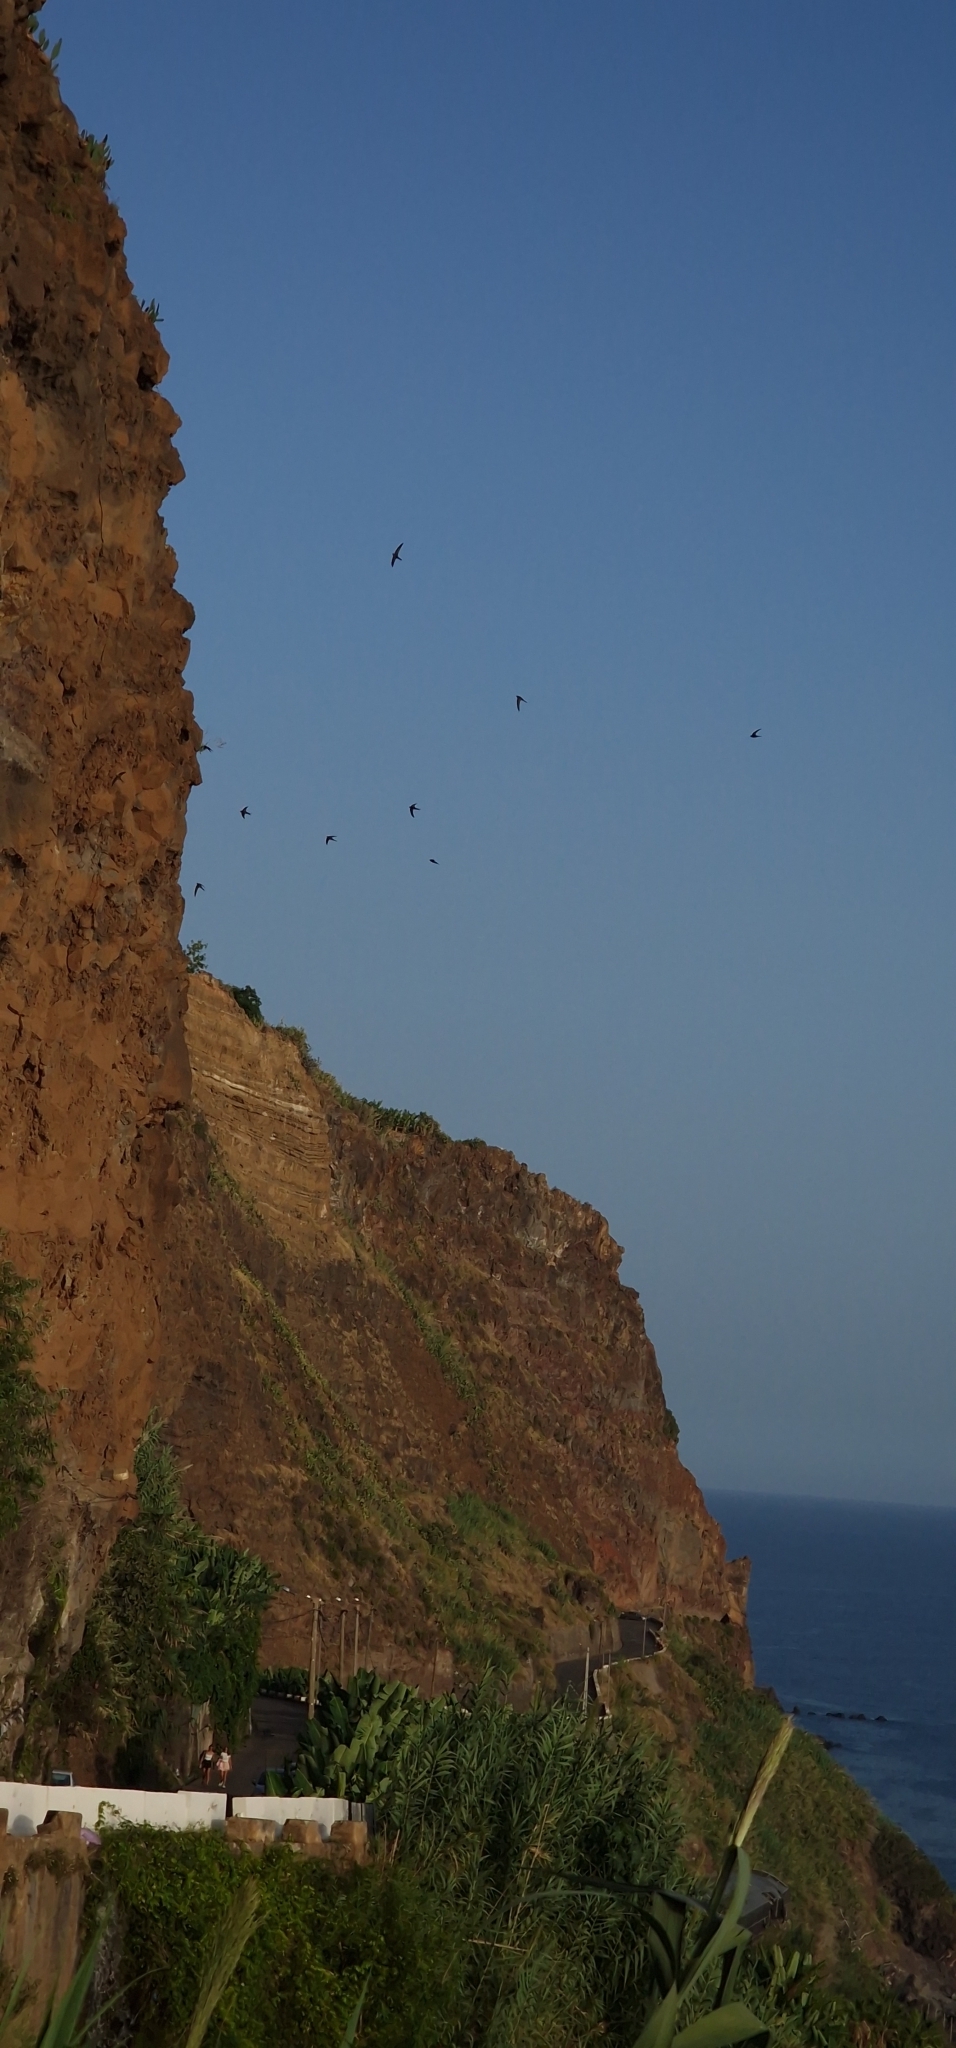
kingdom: Animalia
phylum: Chordata
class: Aves
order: Apodiformes
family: Apodidae
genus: Apus
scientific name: Apus unicolor
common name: Plain swift
